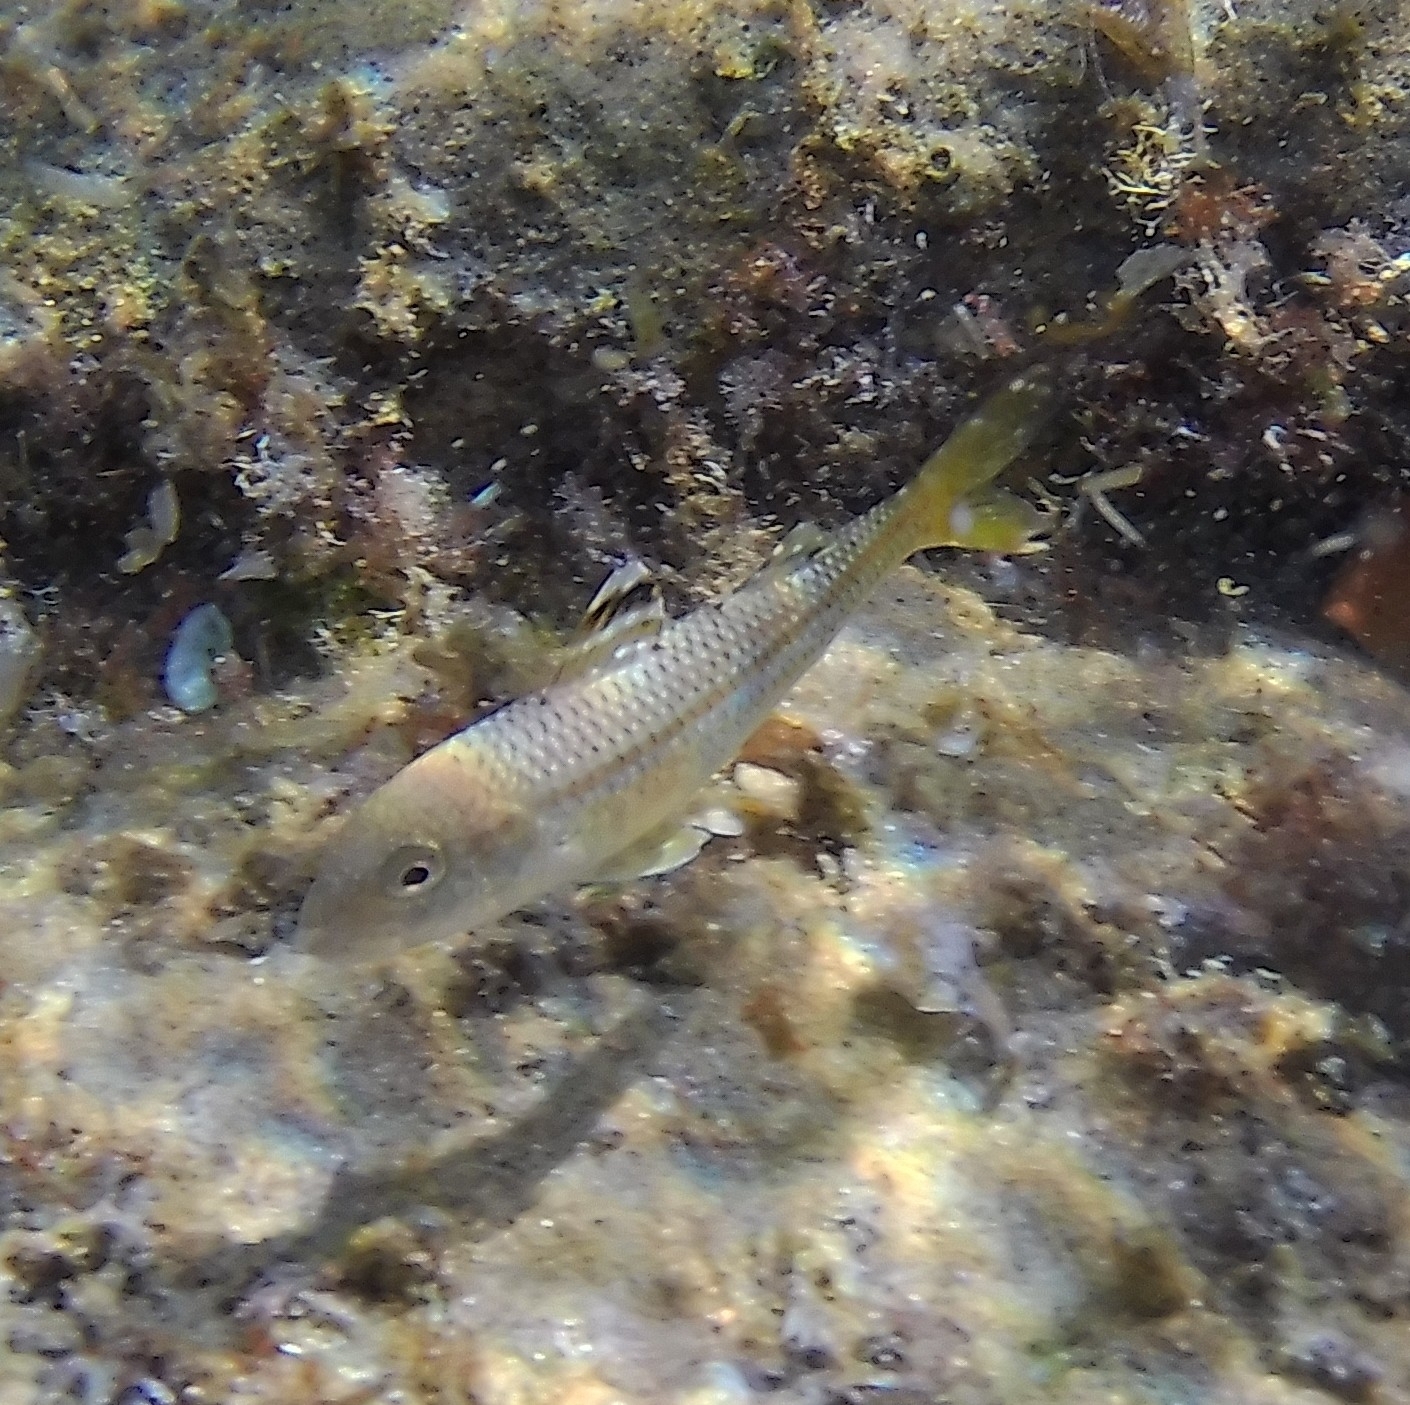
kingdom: Animalia
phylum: Chordata
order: Perciformes
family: Mullidae
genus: Mullus
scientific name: Mullus surmuletus
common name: Red mullet
